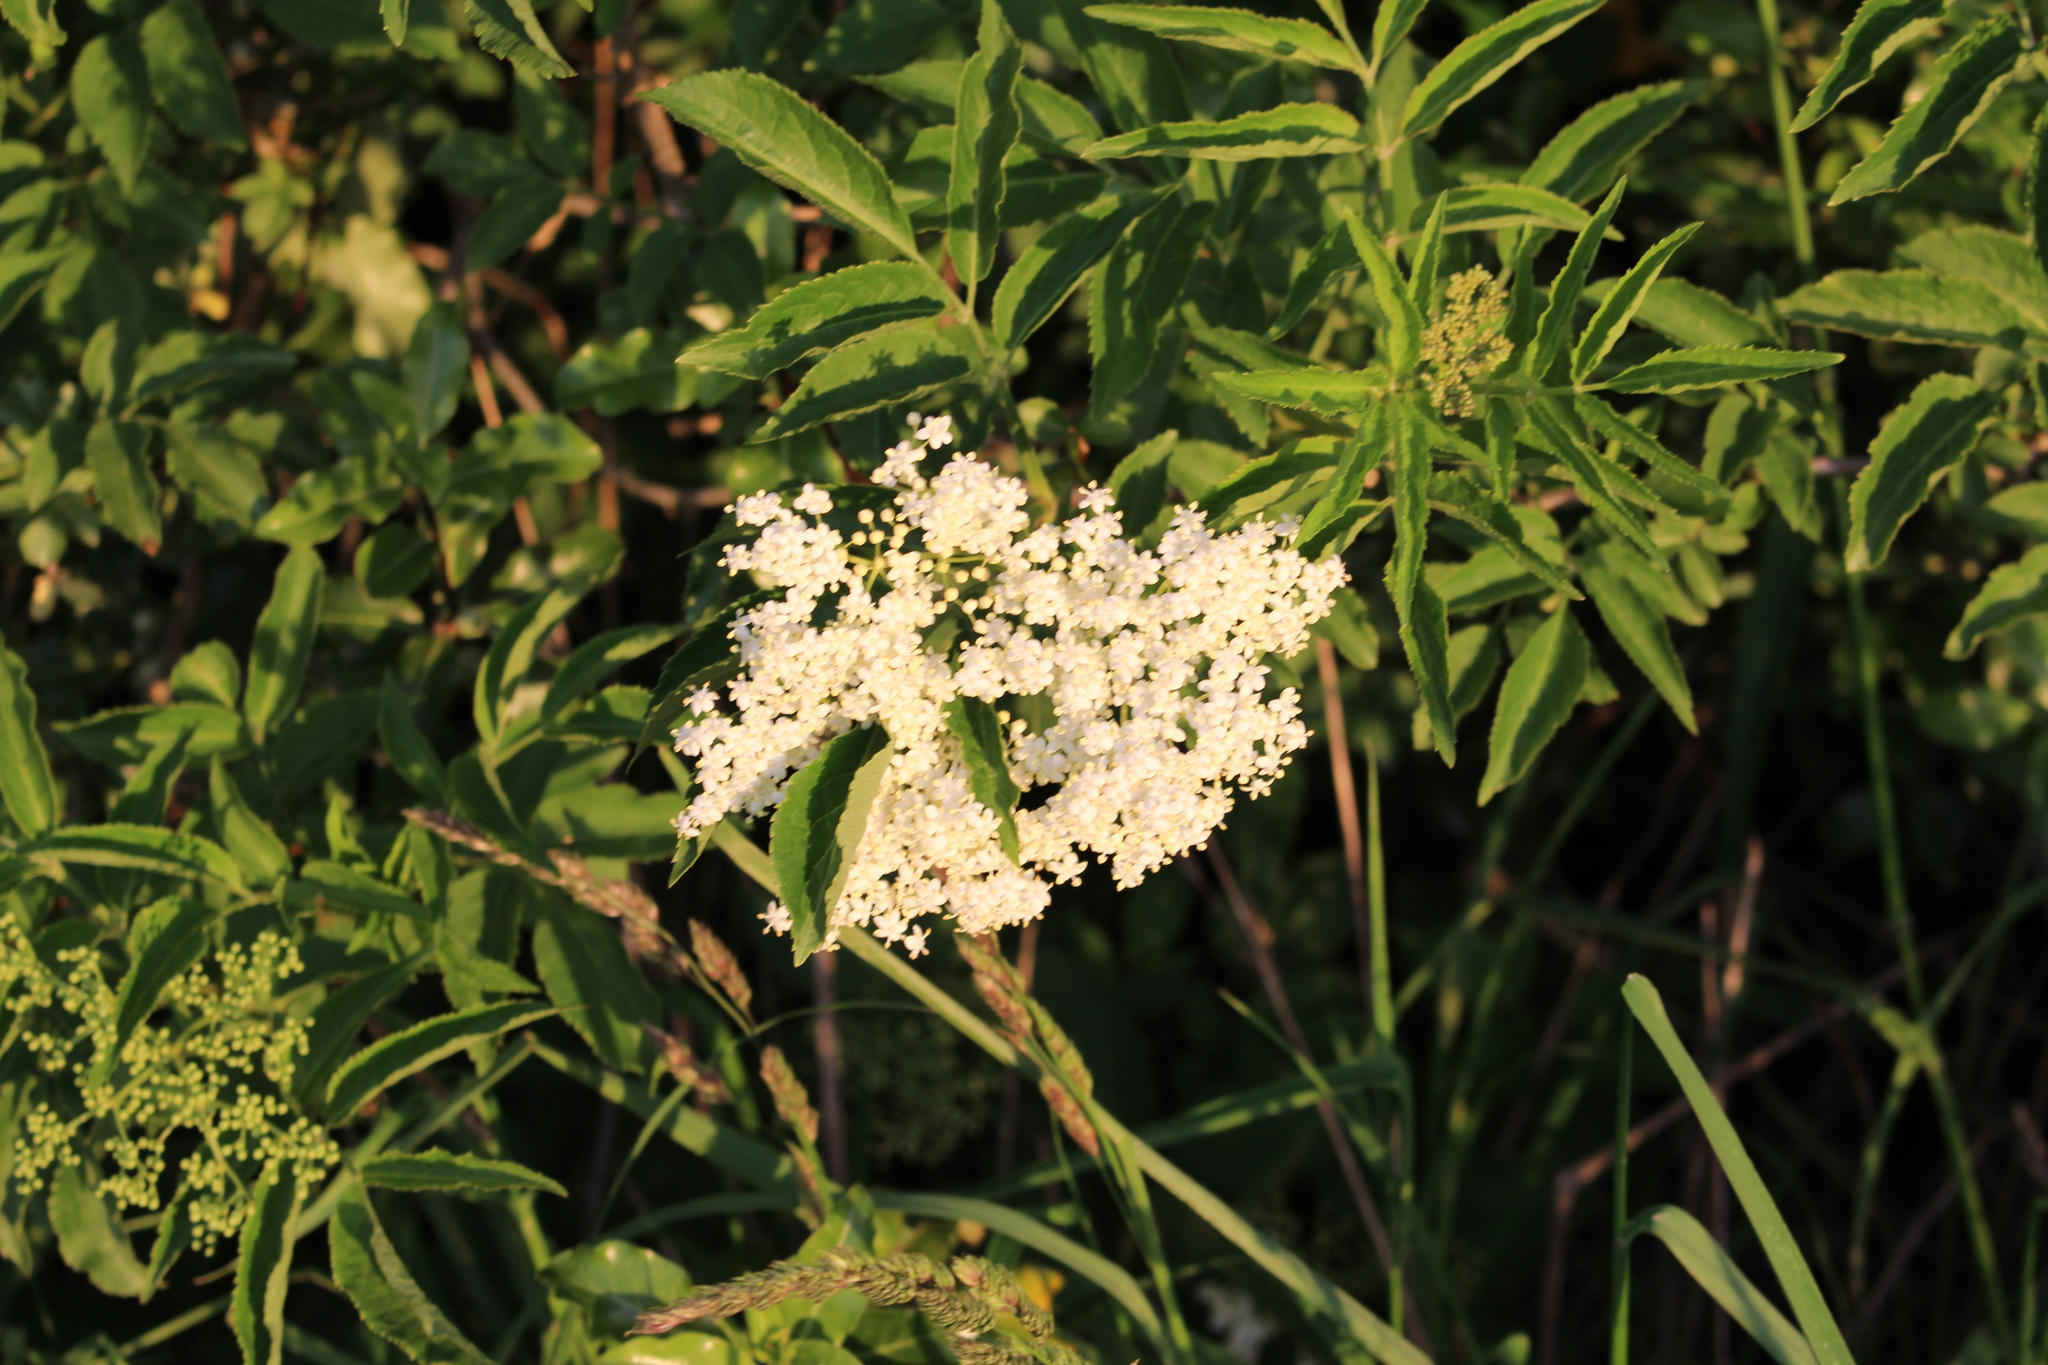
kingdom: Plantae
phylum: Tracheophyta
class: Magnoliopsida
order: Dipsacales
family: Viburnaceae
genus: Sambucus
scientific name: Sambucus nigra
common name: Elder
